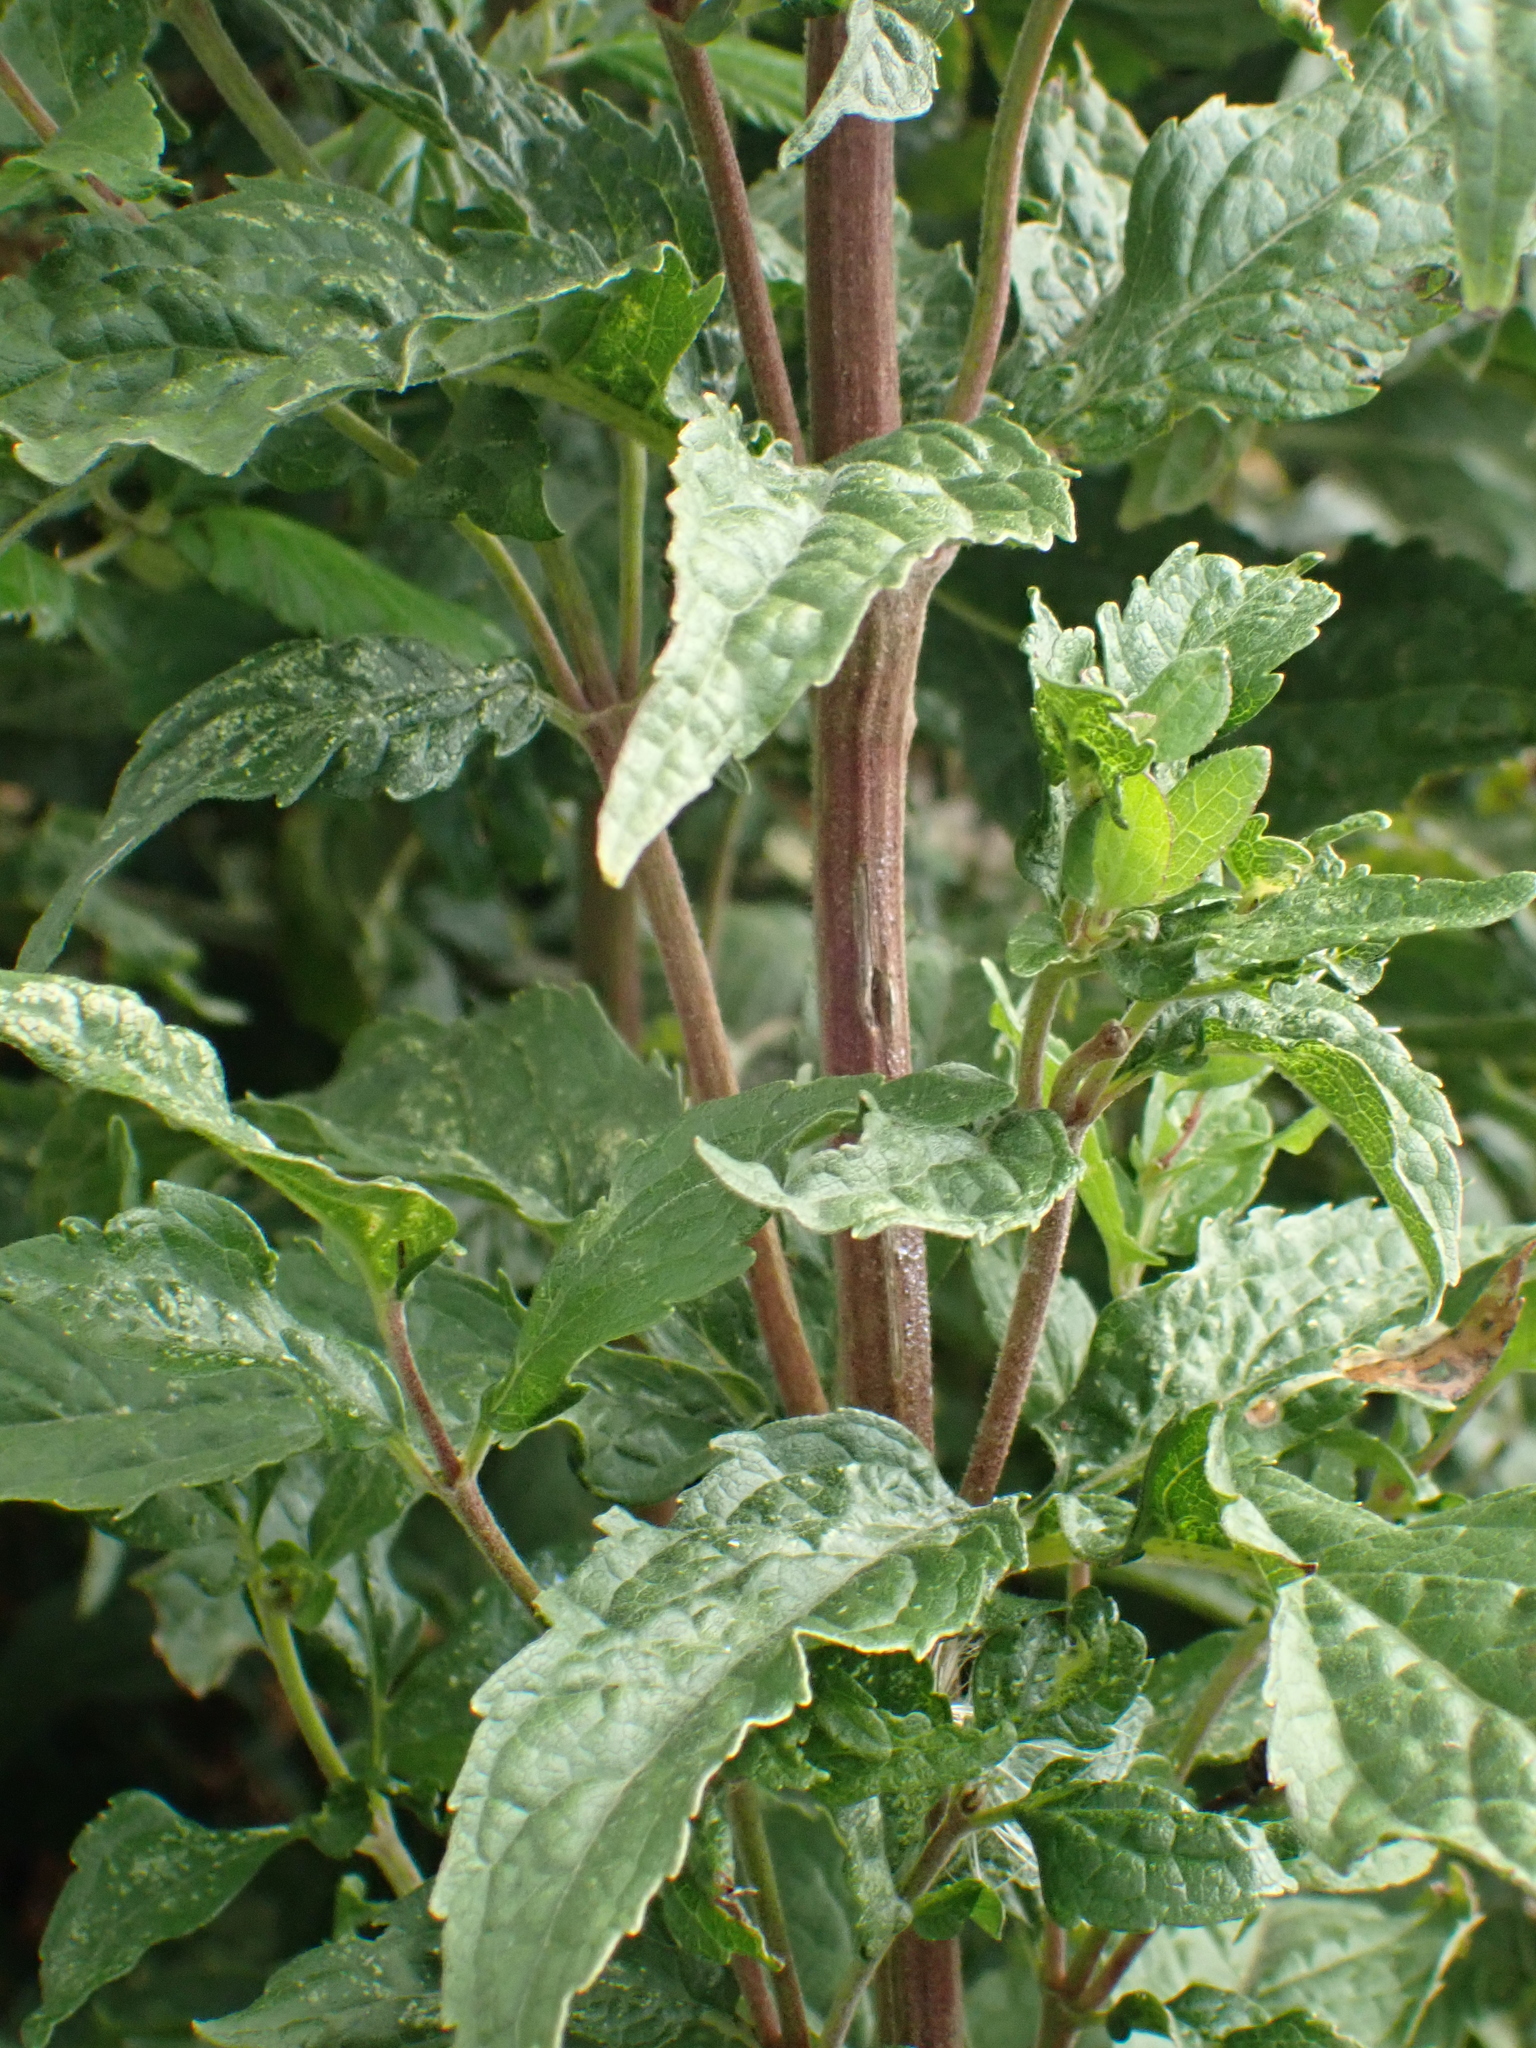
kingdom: Plantae
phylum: Tracheophyta
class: Magnoliopsida
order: Asterales
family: Asteraceae
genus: Eupatorium
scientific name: Eupatorium cannabinum
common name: Hemp-agrimony
